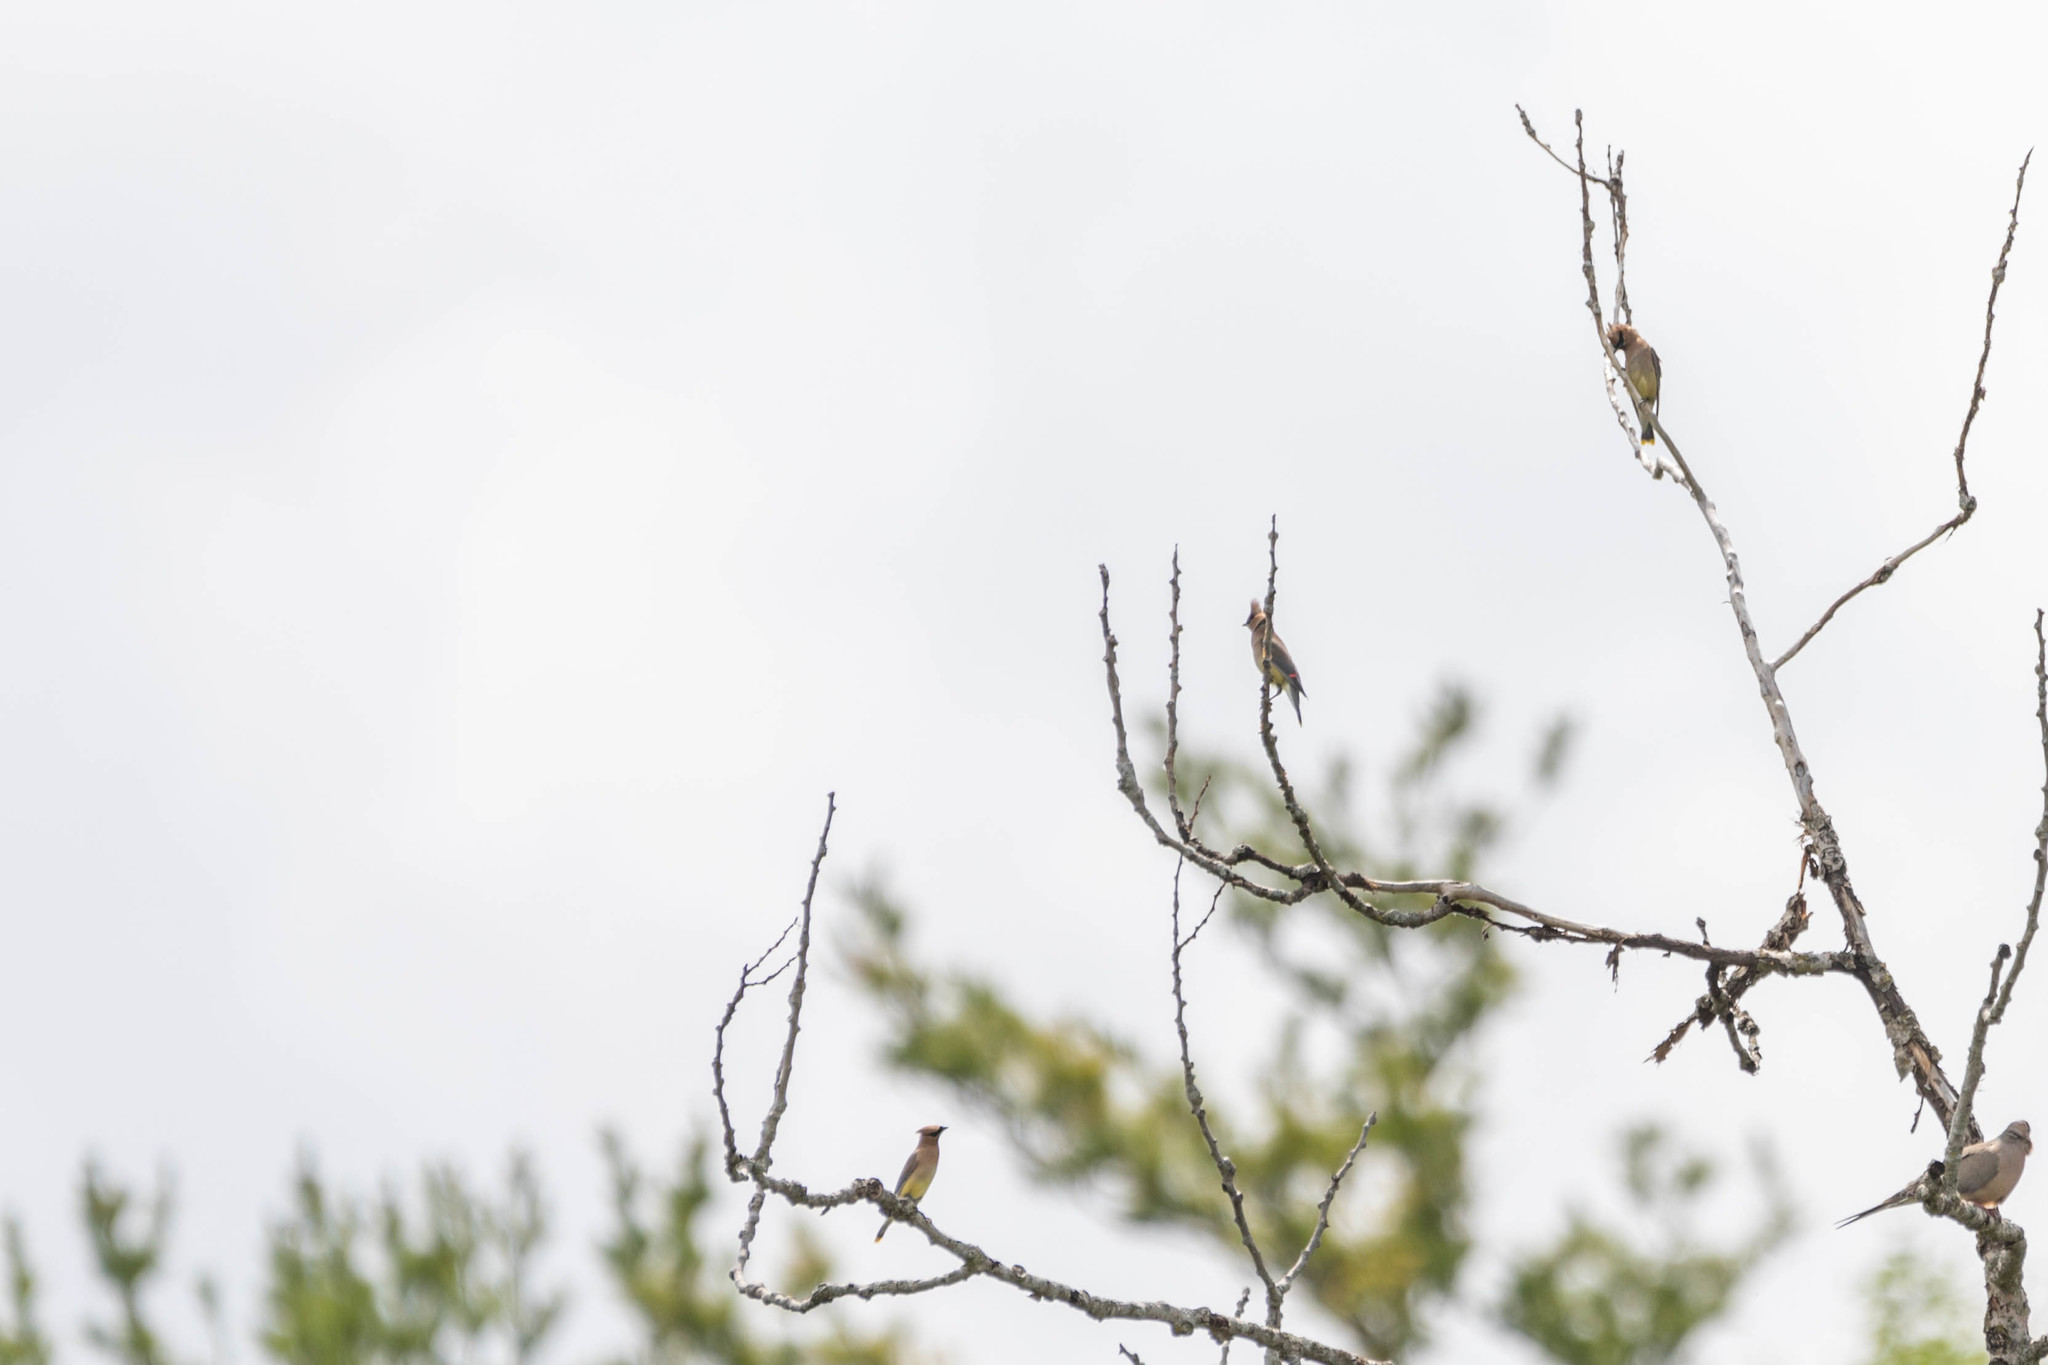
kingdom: Animalia
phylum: Chordata
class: Aves
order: Passeriformes
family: Bombycillidae
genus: Bombycilla
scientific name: Bombycilla cedrorum
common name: Cedar waxwing
